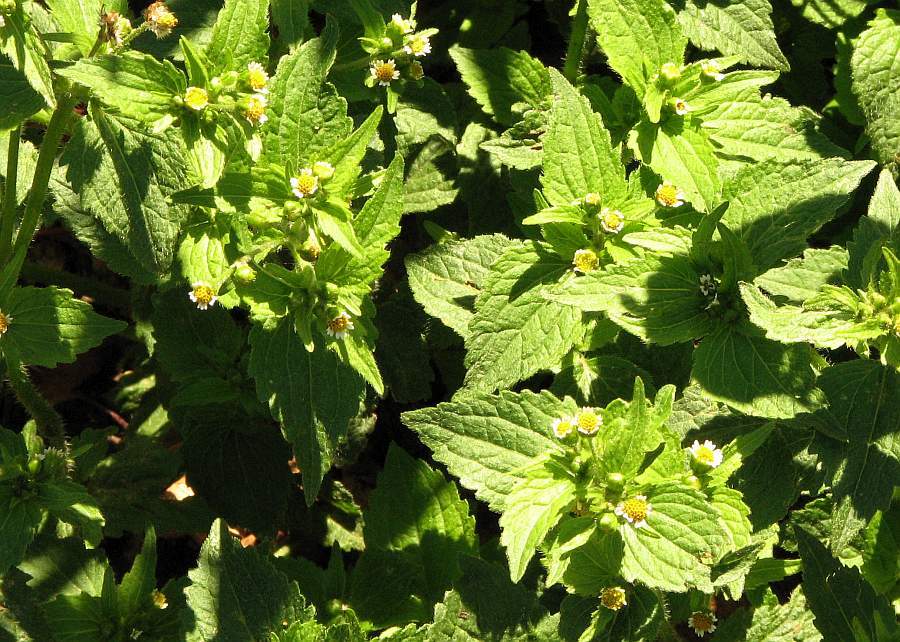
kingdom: Plantae
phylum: Tracheophyta
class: Magnoliopsida
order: Asterales
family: Asteraceae
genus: Galinsoga
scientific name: Galinsoga quadriradiata
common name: Shaggy soldier
